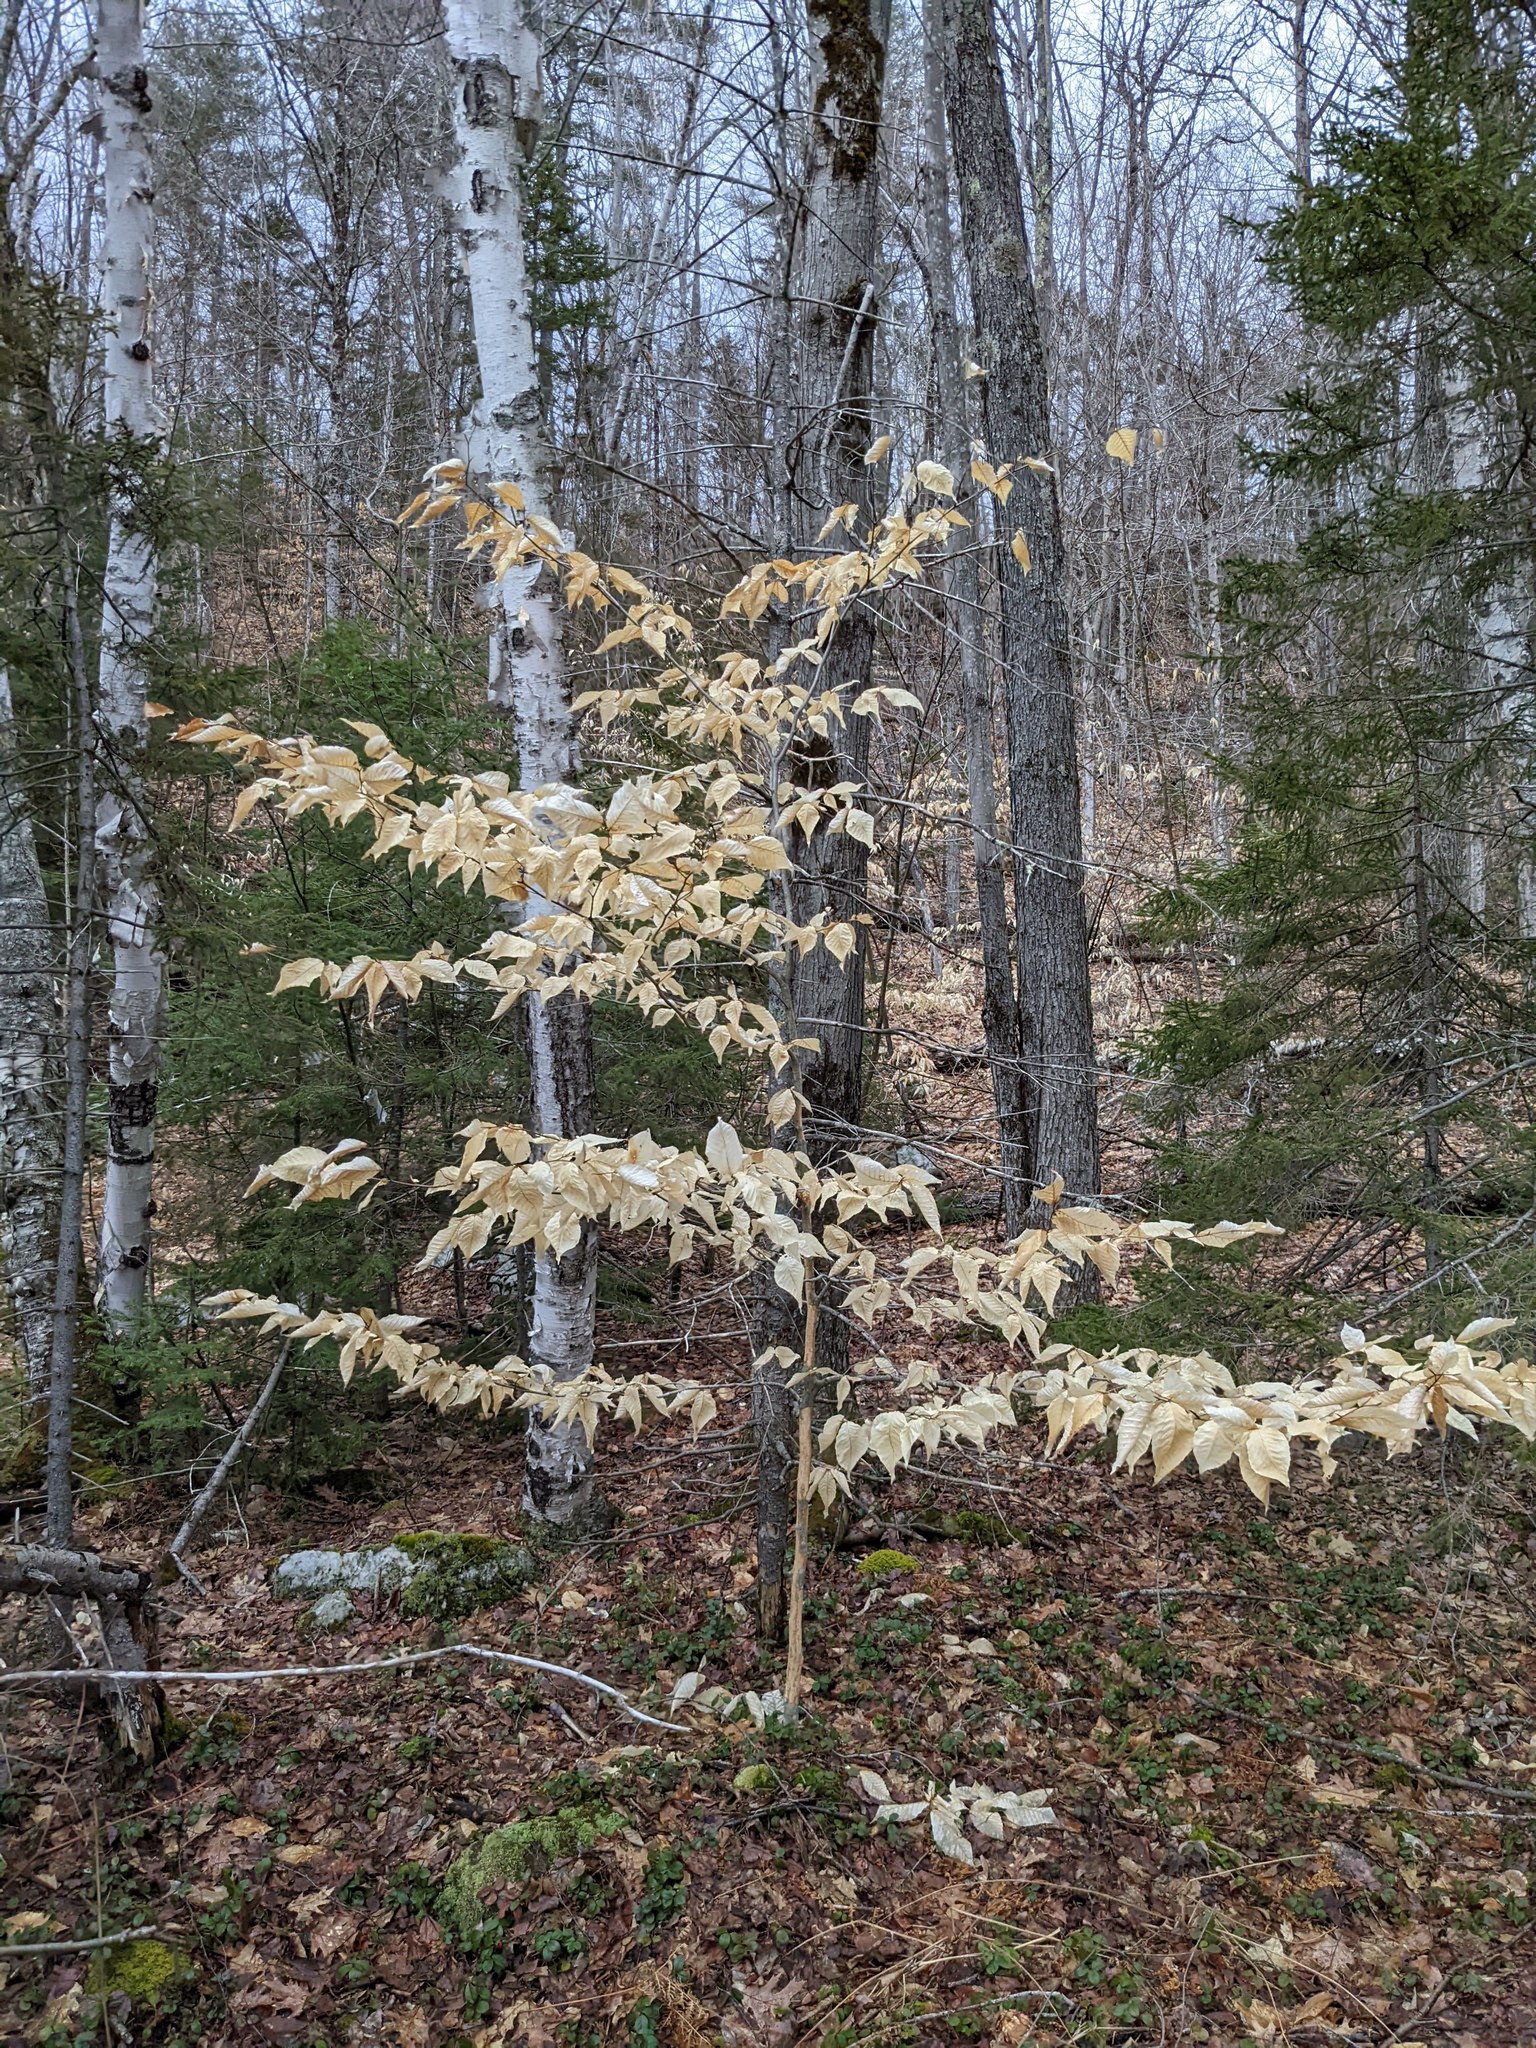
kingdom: Plantae
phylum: Tracheophyta
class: Magnoliopsida
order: Fagales
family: Fagaceae
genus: Fagus
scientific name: Fagus grandifolia
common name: American beech
